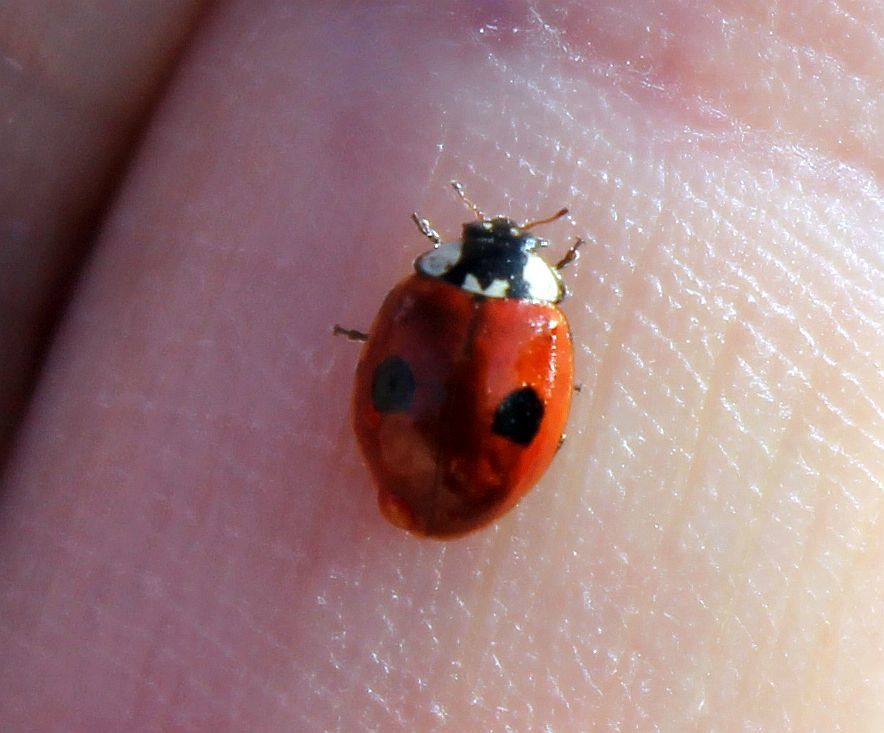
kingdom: Animalia
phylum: Arthropoda
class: Insecta
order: Coleoptera
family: Coccinellidae
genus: Adalia
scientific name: Adalia bipunctata
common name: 2-spot ladybird
